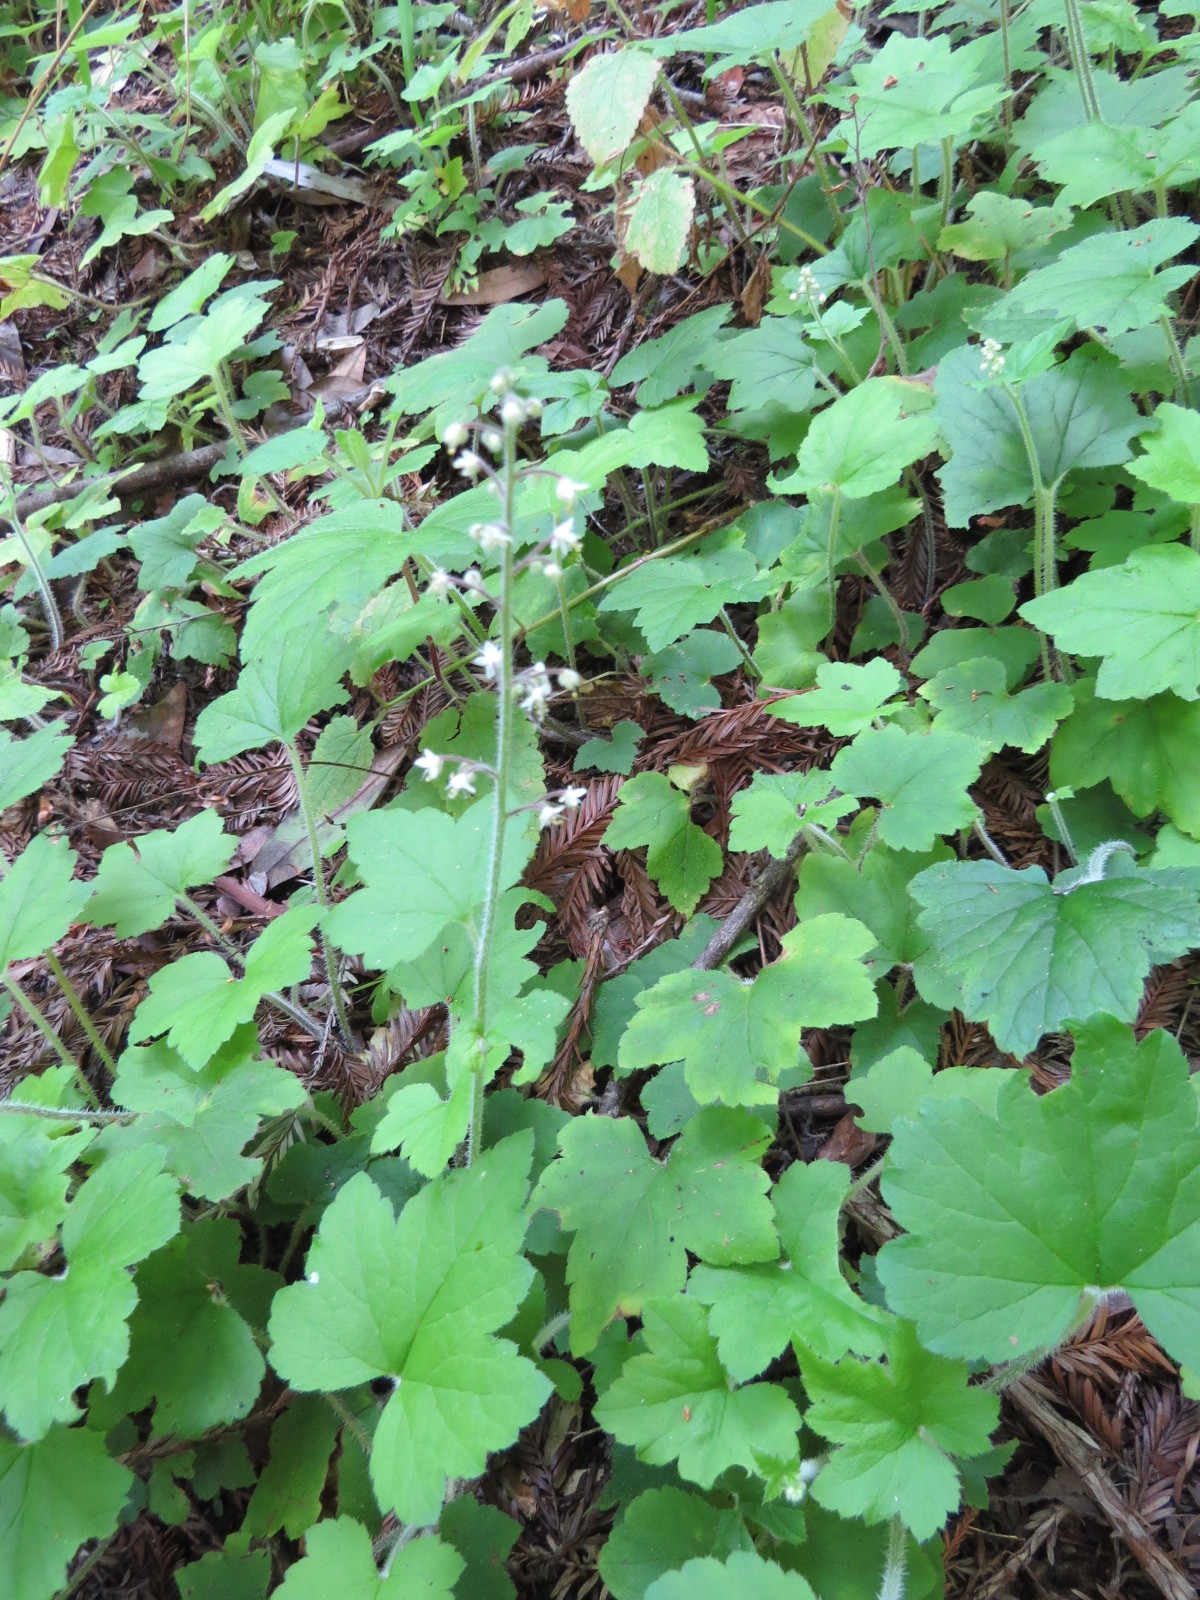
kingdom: Plantae
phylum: Tracheophyta
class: Magnoliopsida
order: Saxifragales
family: Saxifragaceae
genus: Tiarella
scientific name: Tiarella trifoliata
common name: Sugar-scoop
